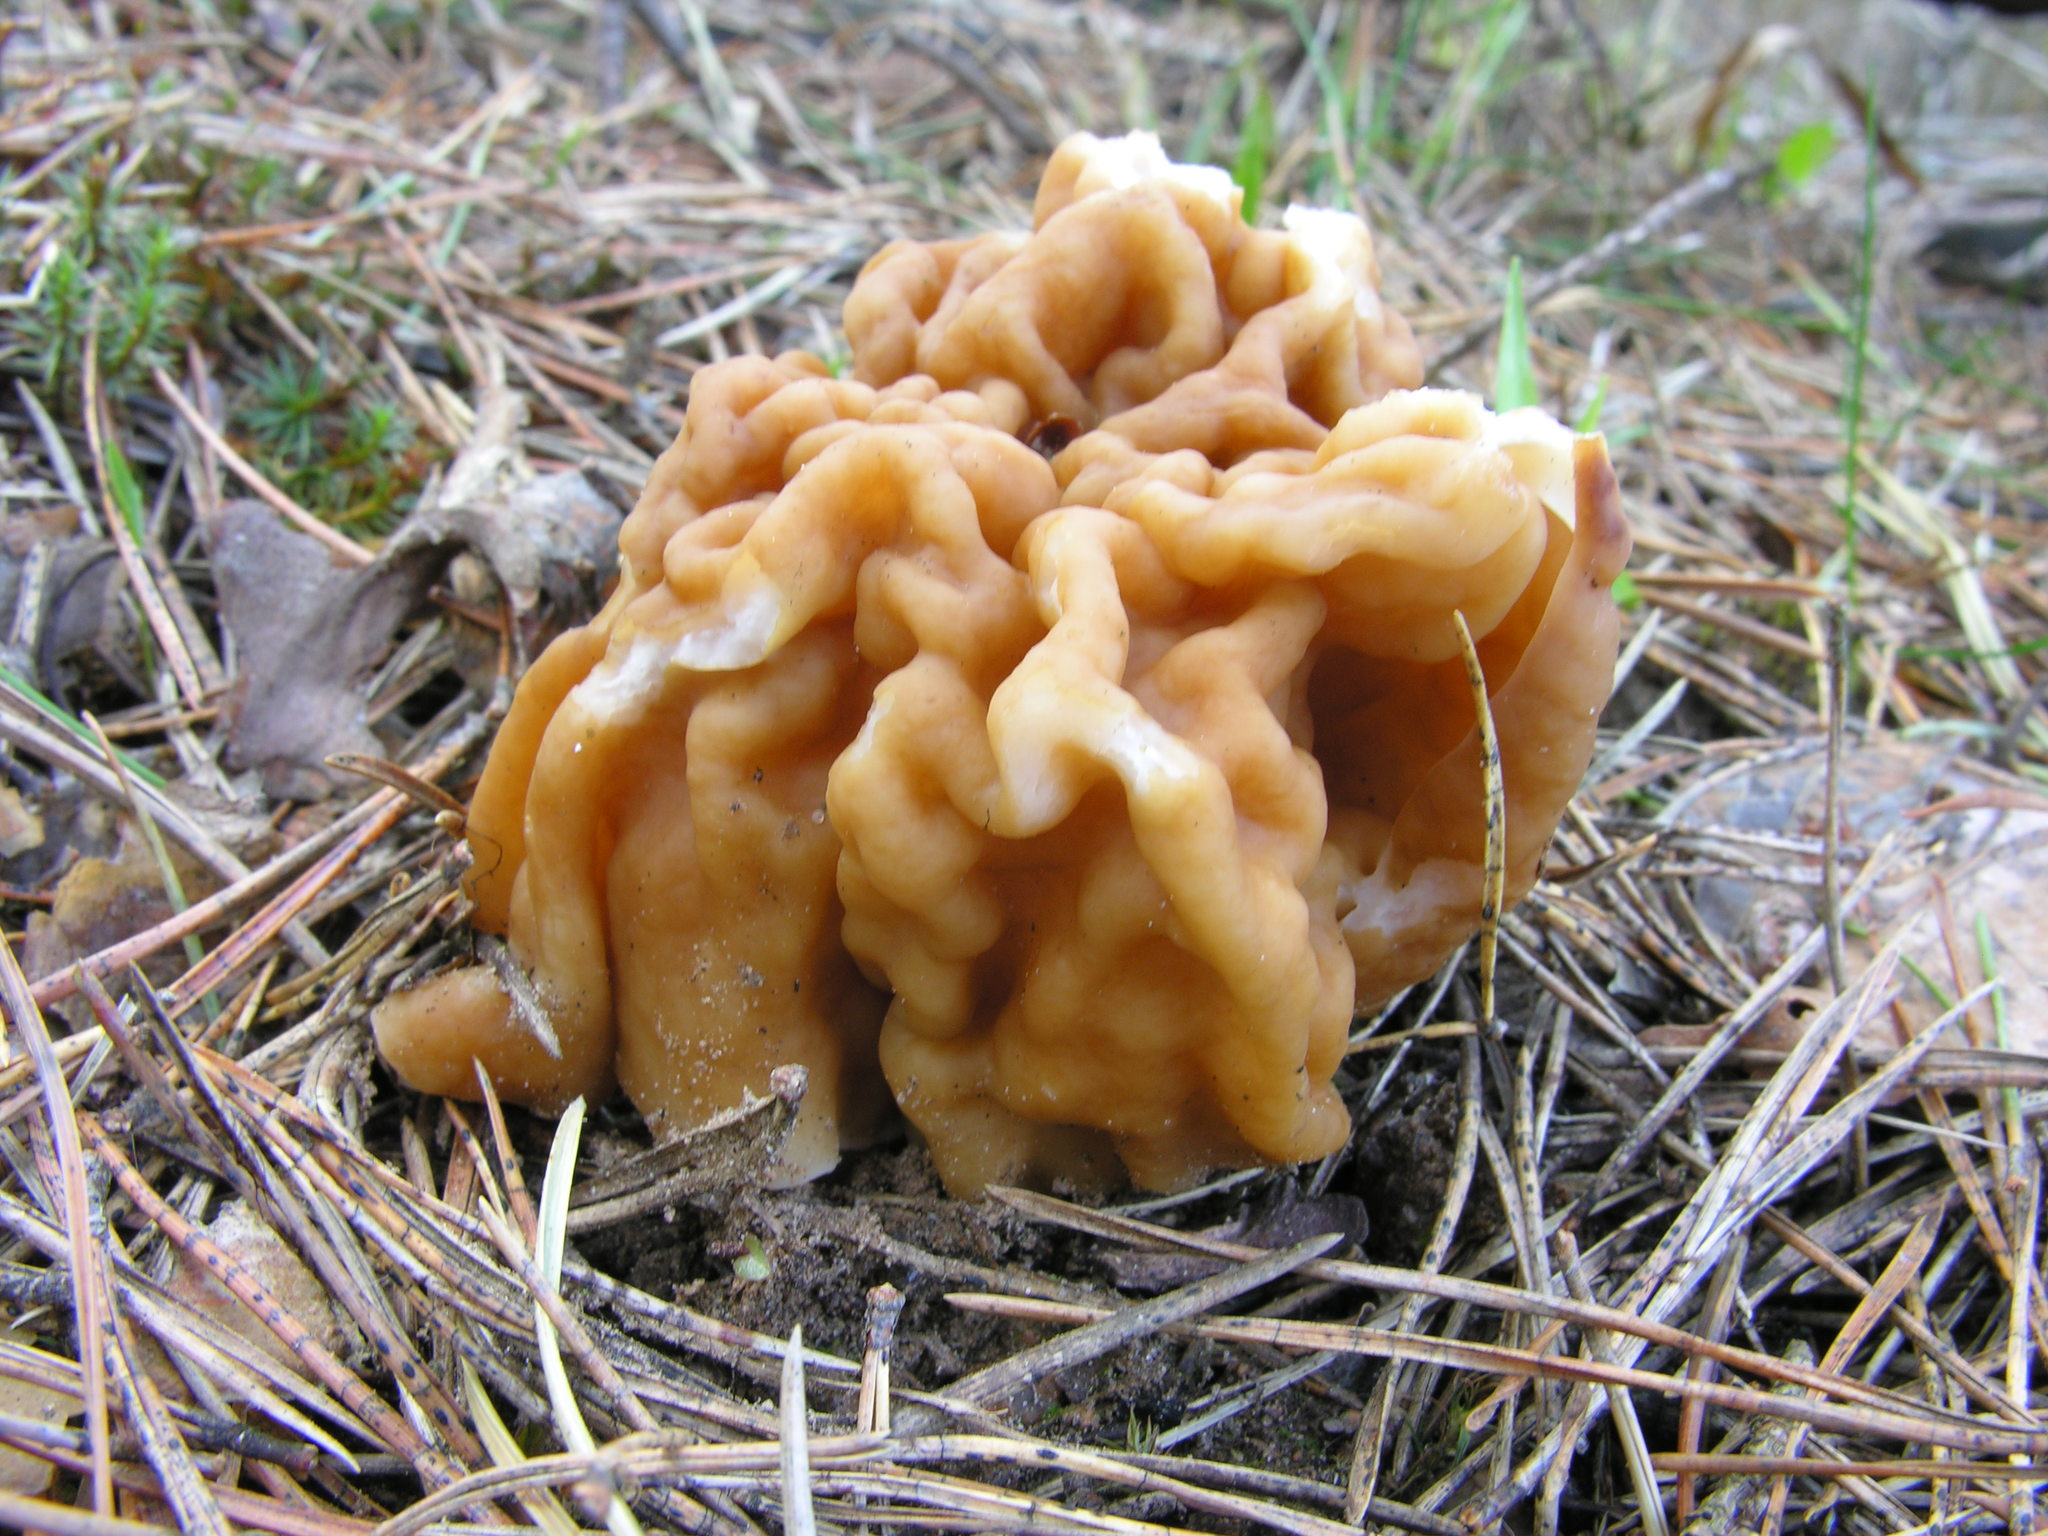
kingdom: Fungi
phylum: Ascomycota
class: Pezizomycetes
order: Pezizales
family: Discinaceae
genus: Gyromitra
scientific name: Gyromitra gigas
